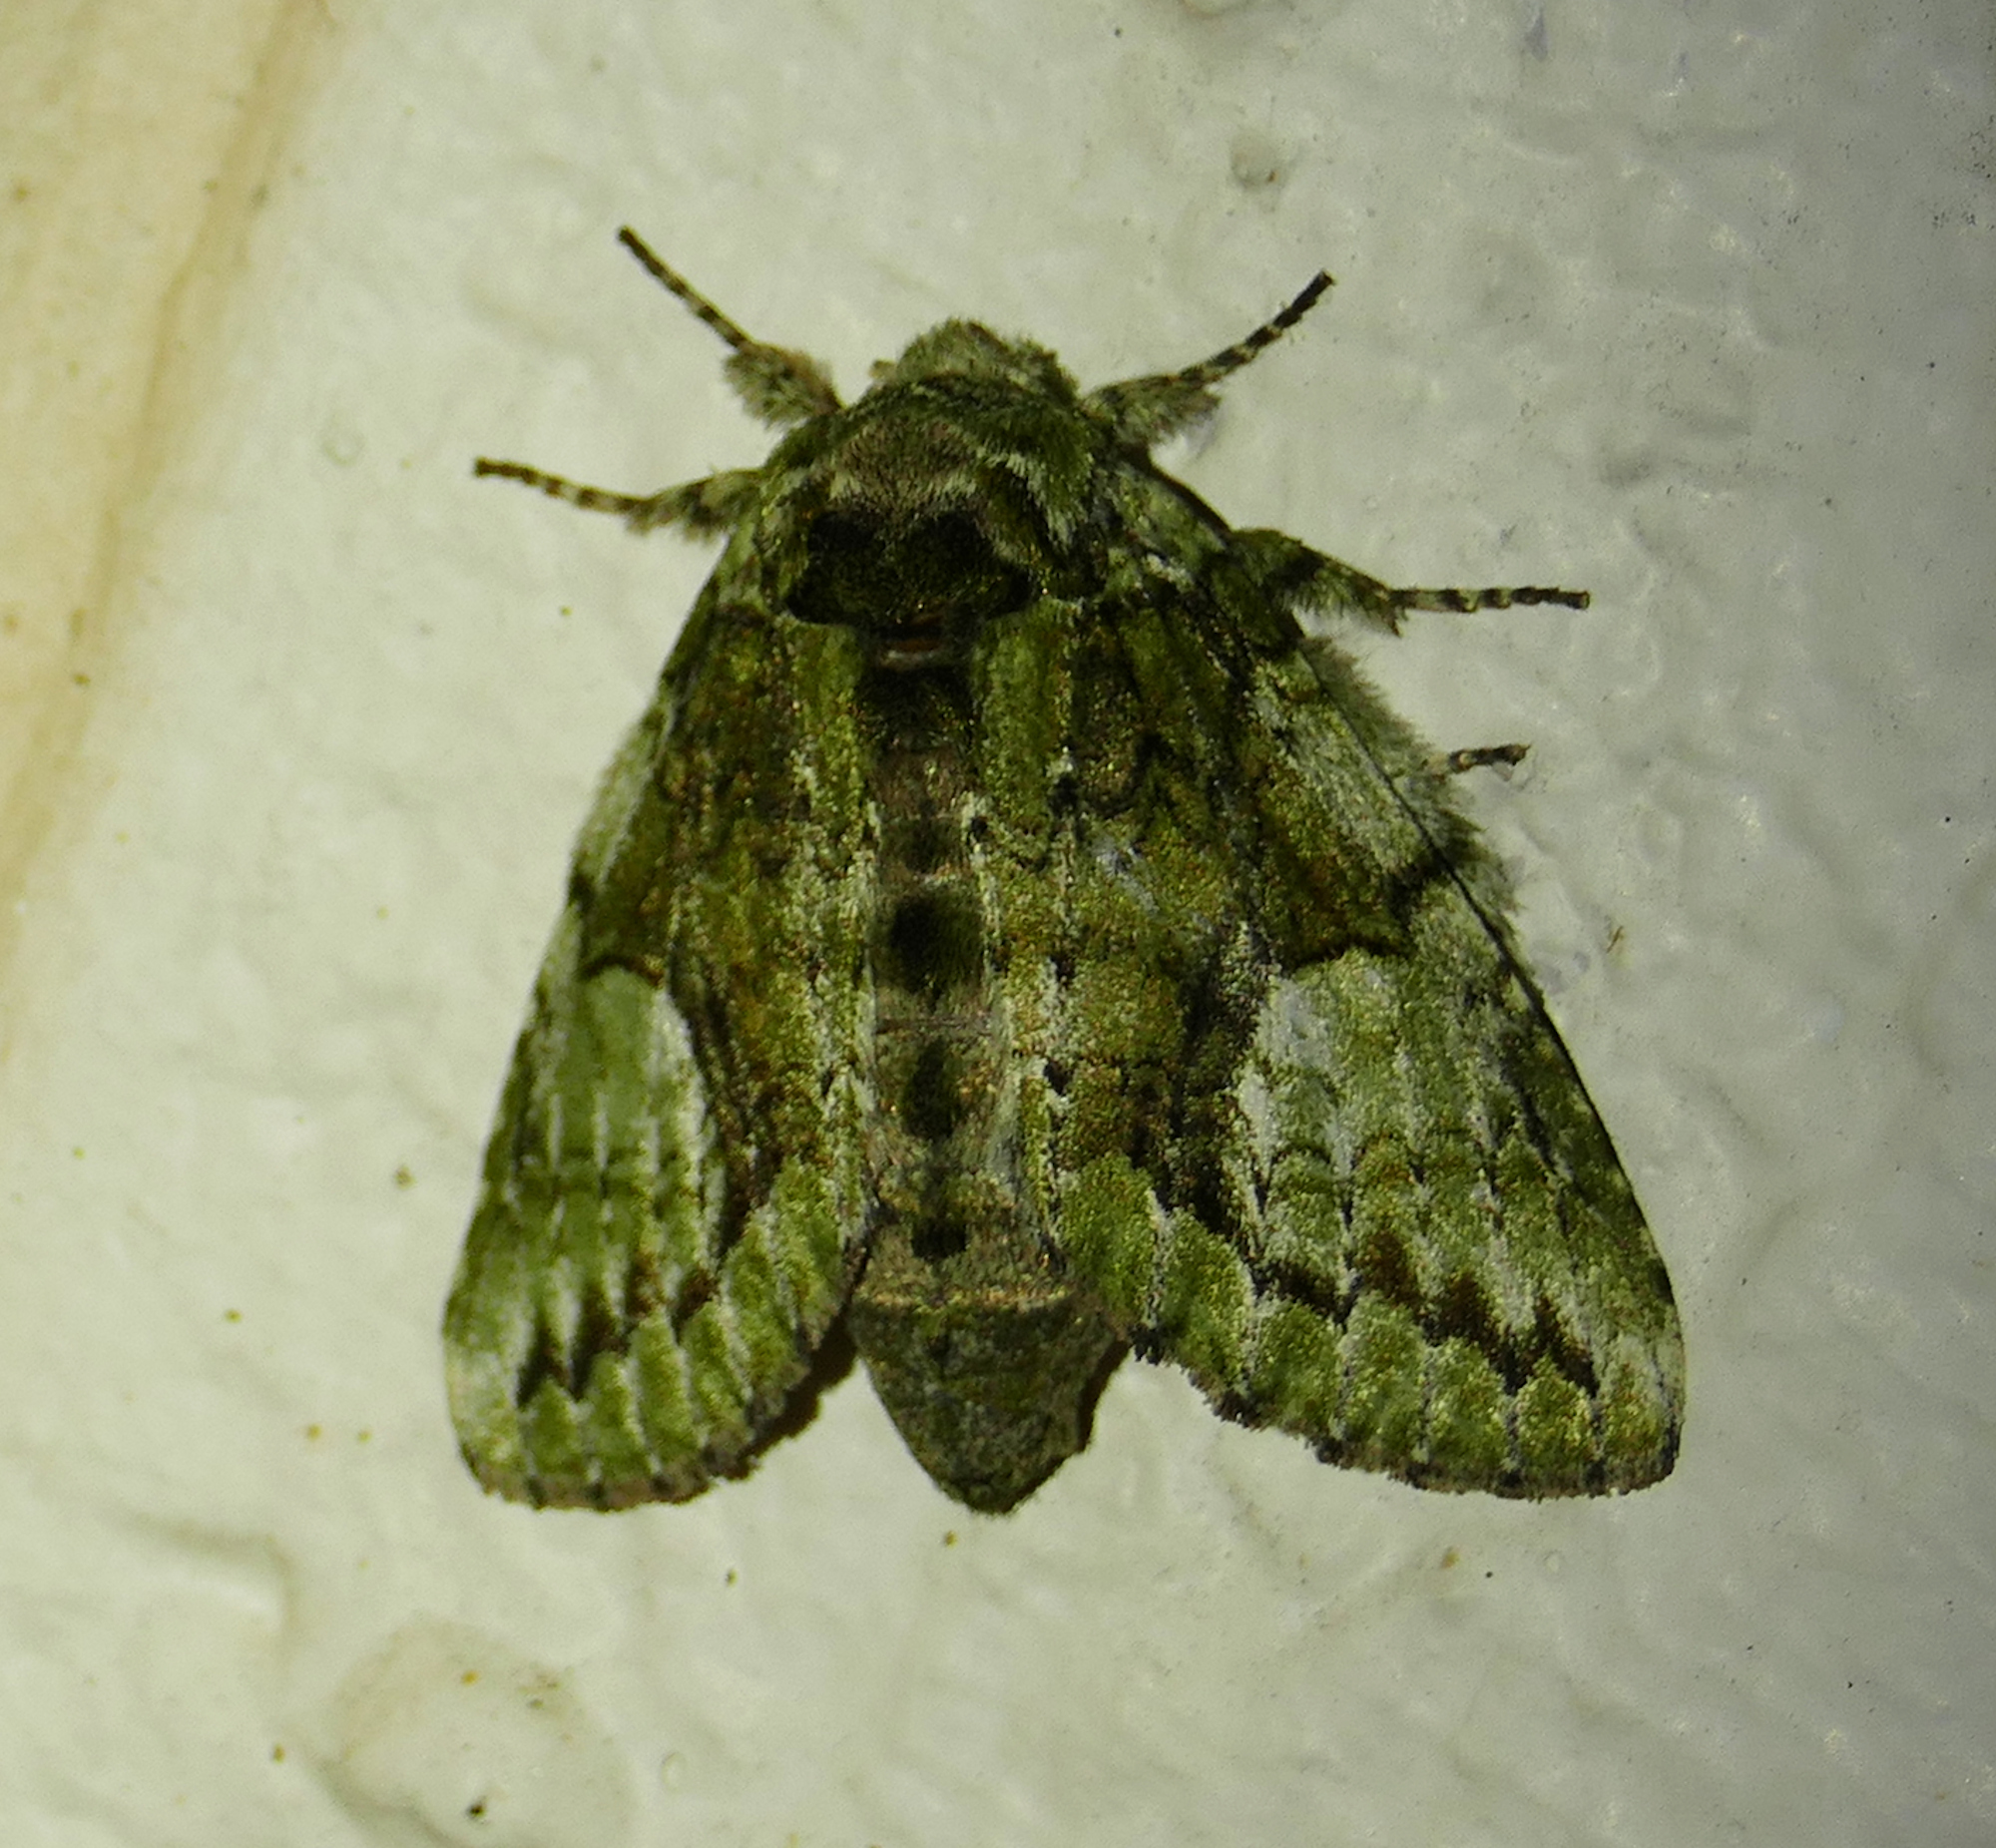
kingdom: Animalia
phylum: Arthropoda
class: Insecta
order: Lepidoptera
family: Notodontidae
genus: Heterocampa
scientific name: Heterocampa
